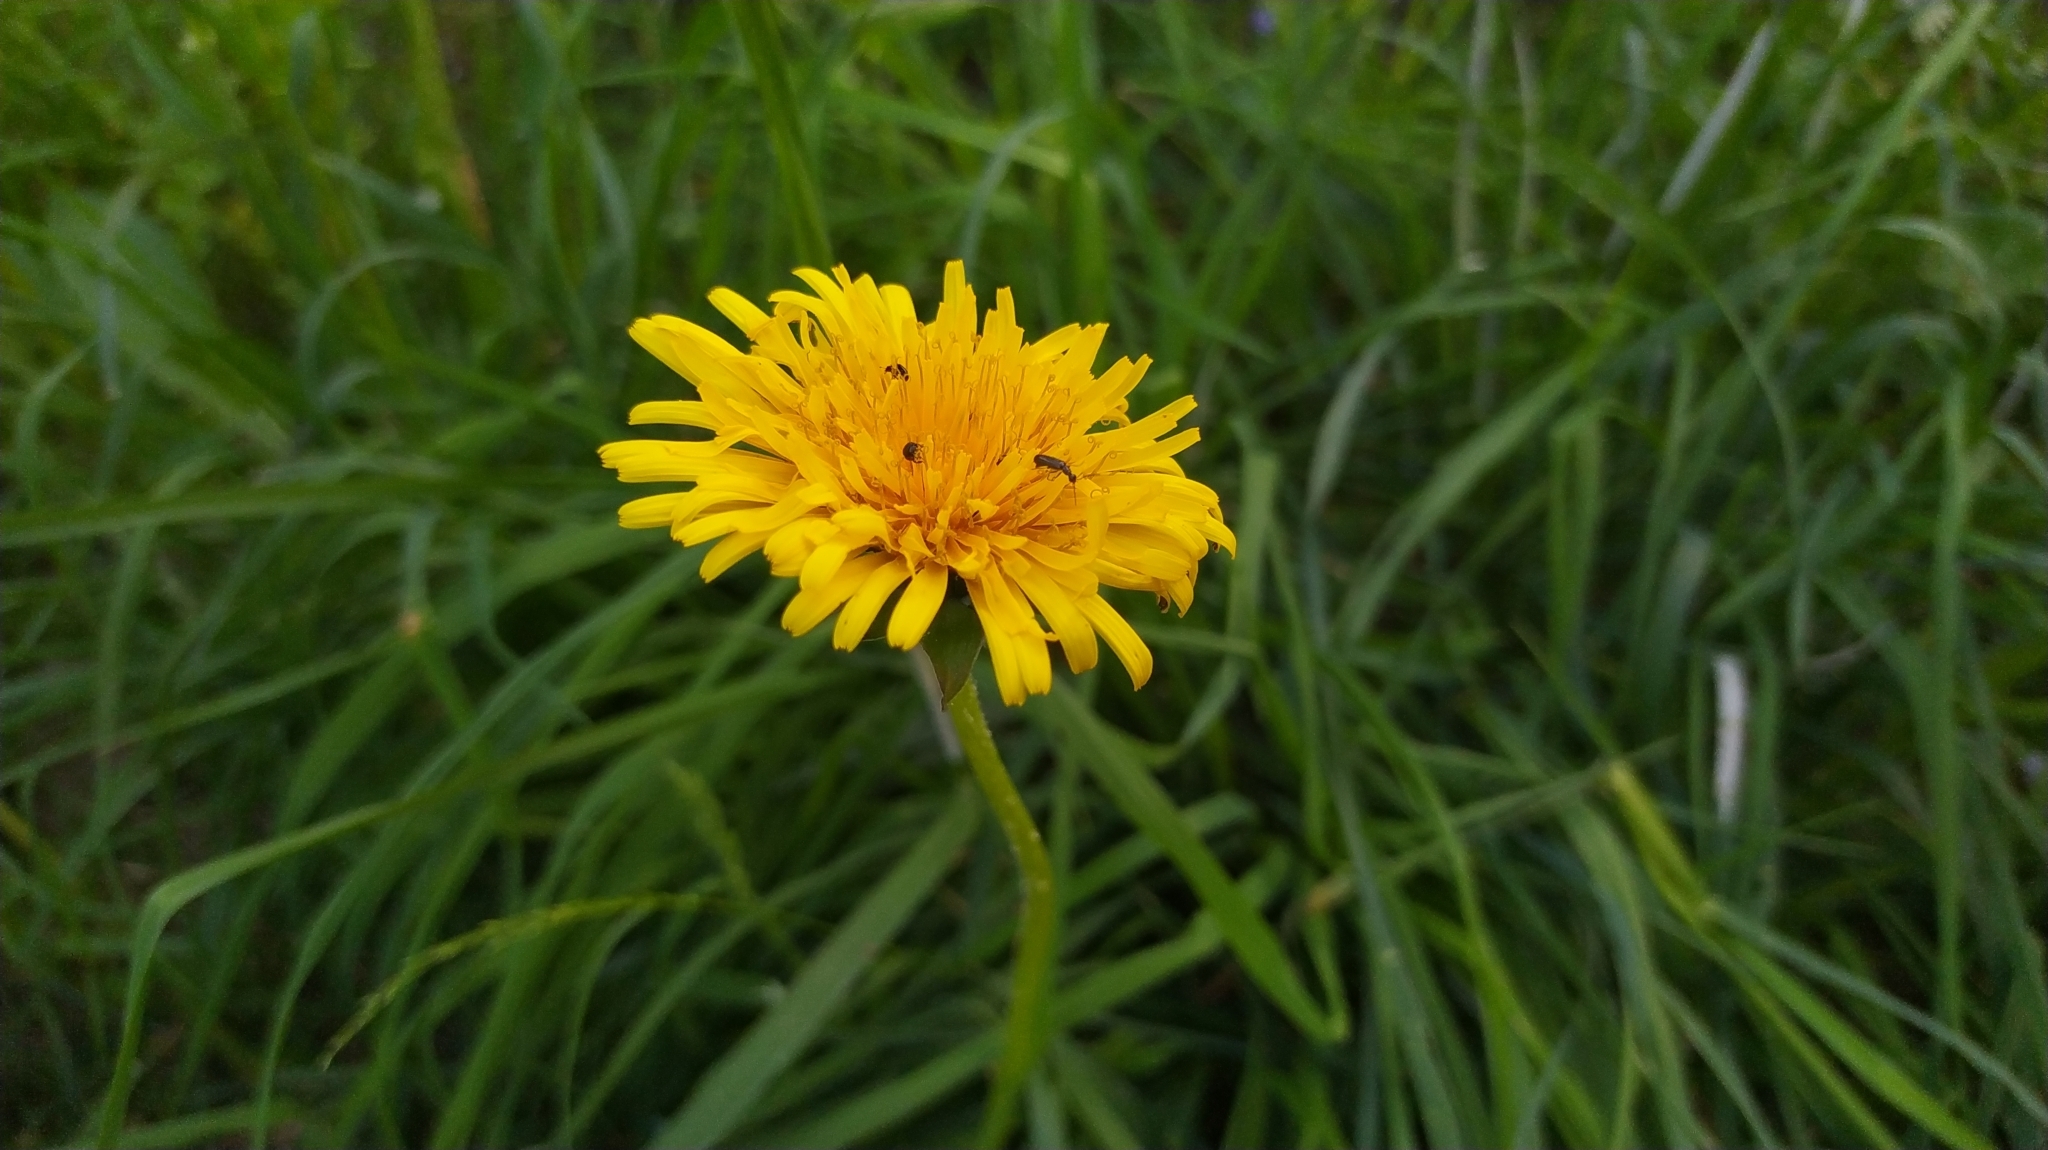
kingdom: Plantae
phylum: Tracheophyta
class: Magnoliopsida
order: Asterales
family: Asteraceae
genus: Taraxacum
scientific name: Taraxacum officinale
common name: Common dandelion
